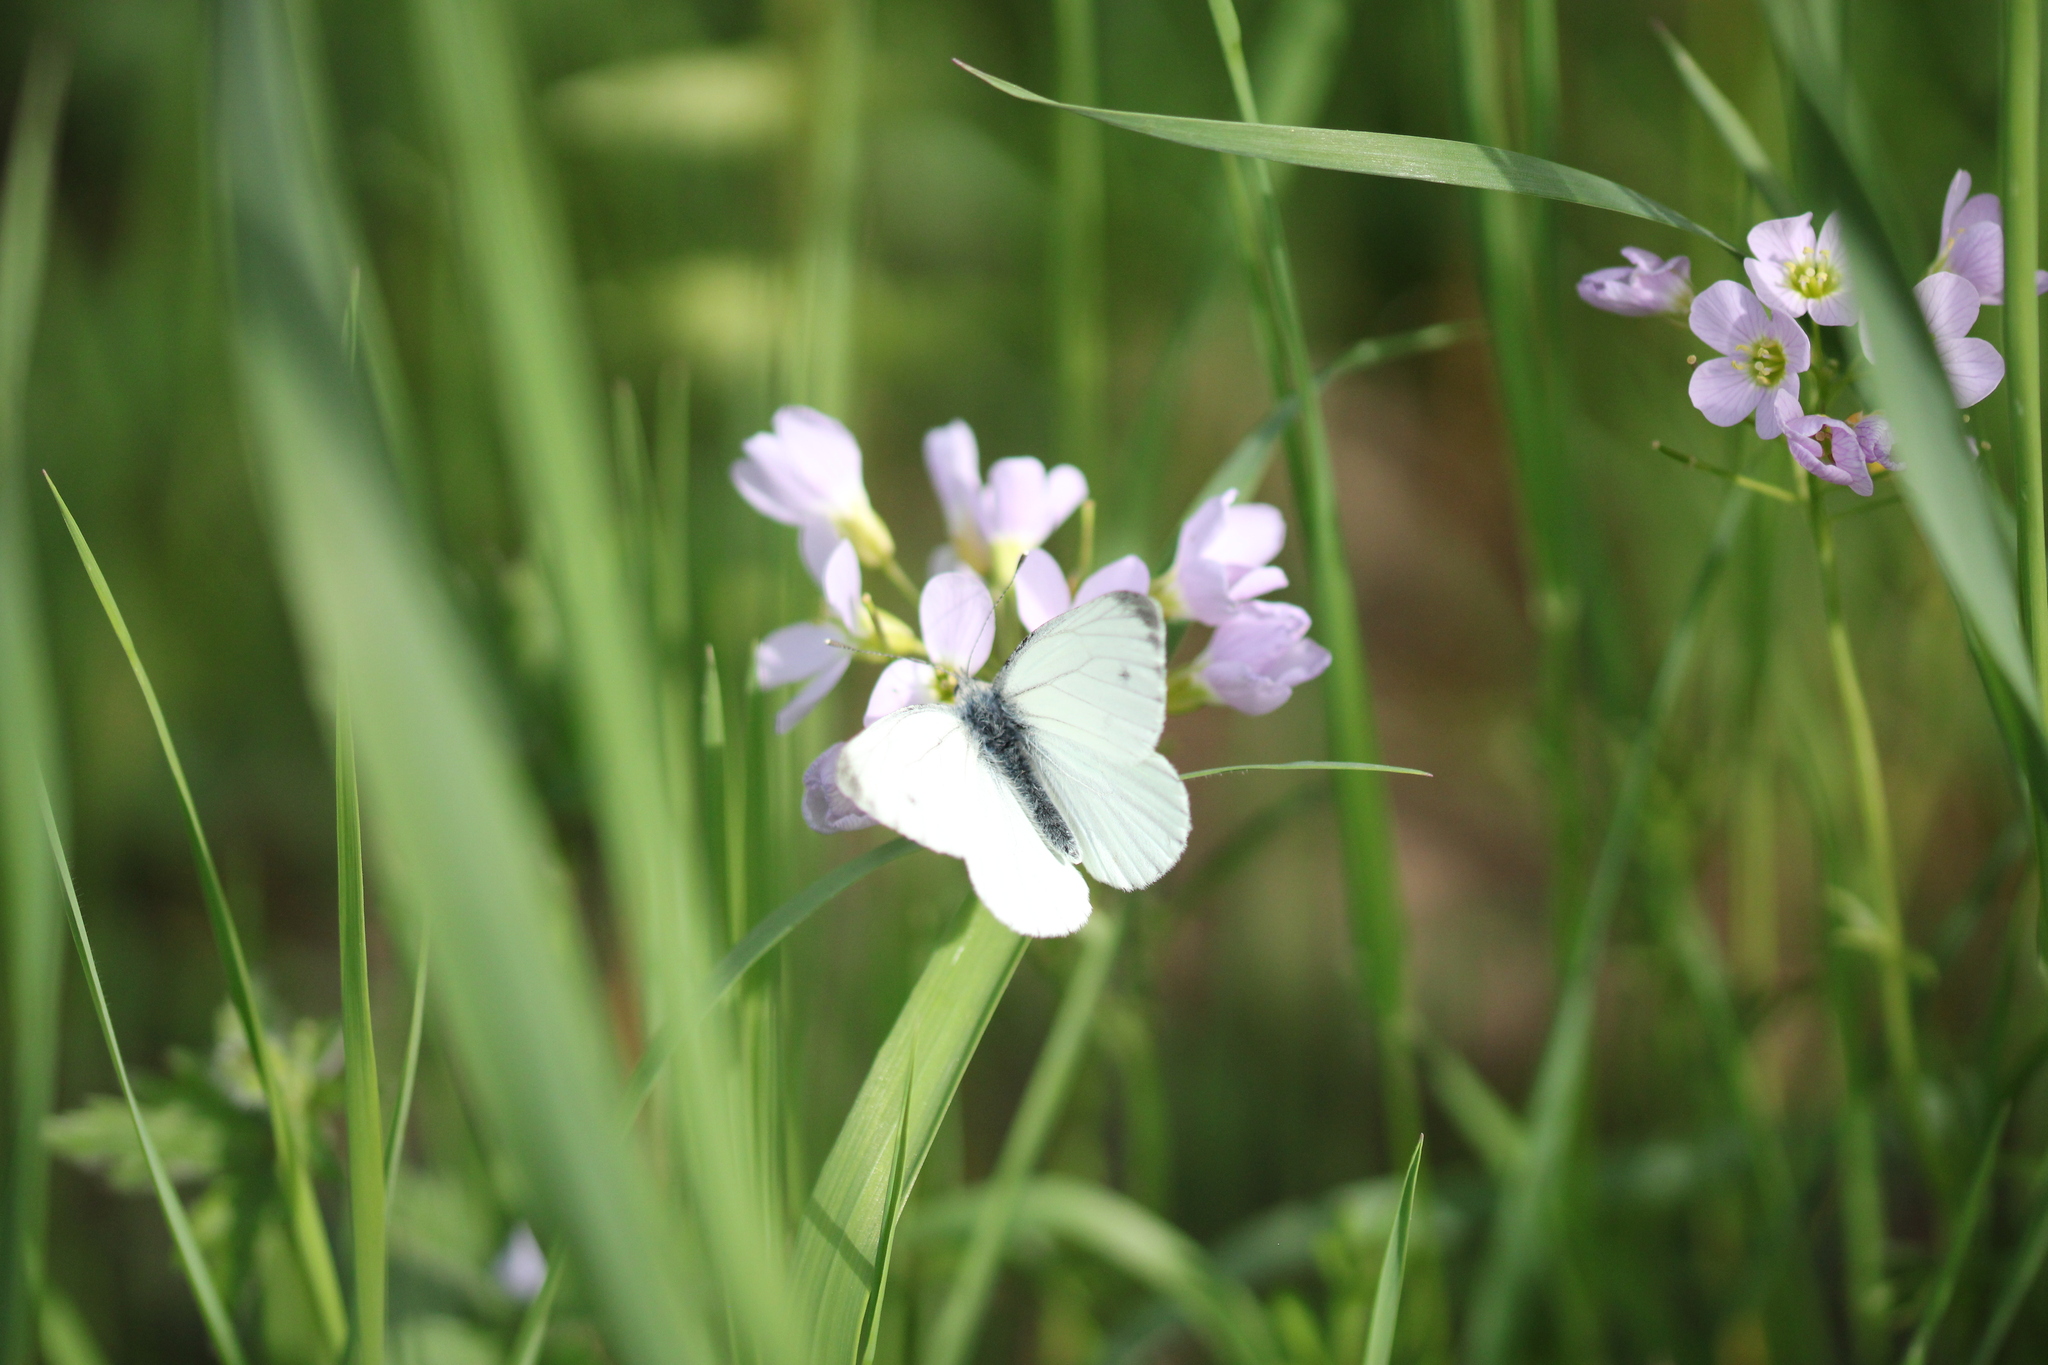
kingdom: Animalia
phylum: Arthropoda
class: Insecta
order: Lepidoptera
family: Pieridae
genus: Pieris
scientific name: Pieris napi
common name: Green-veined white
